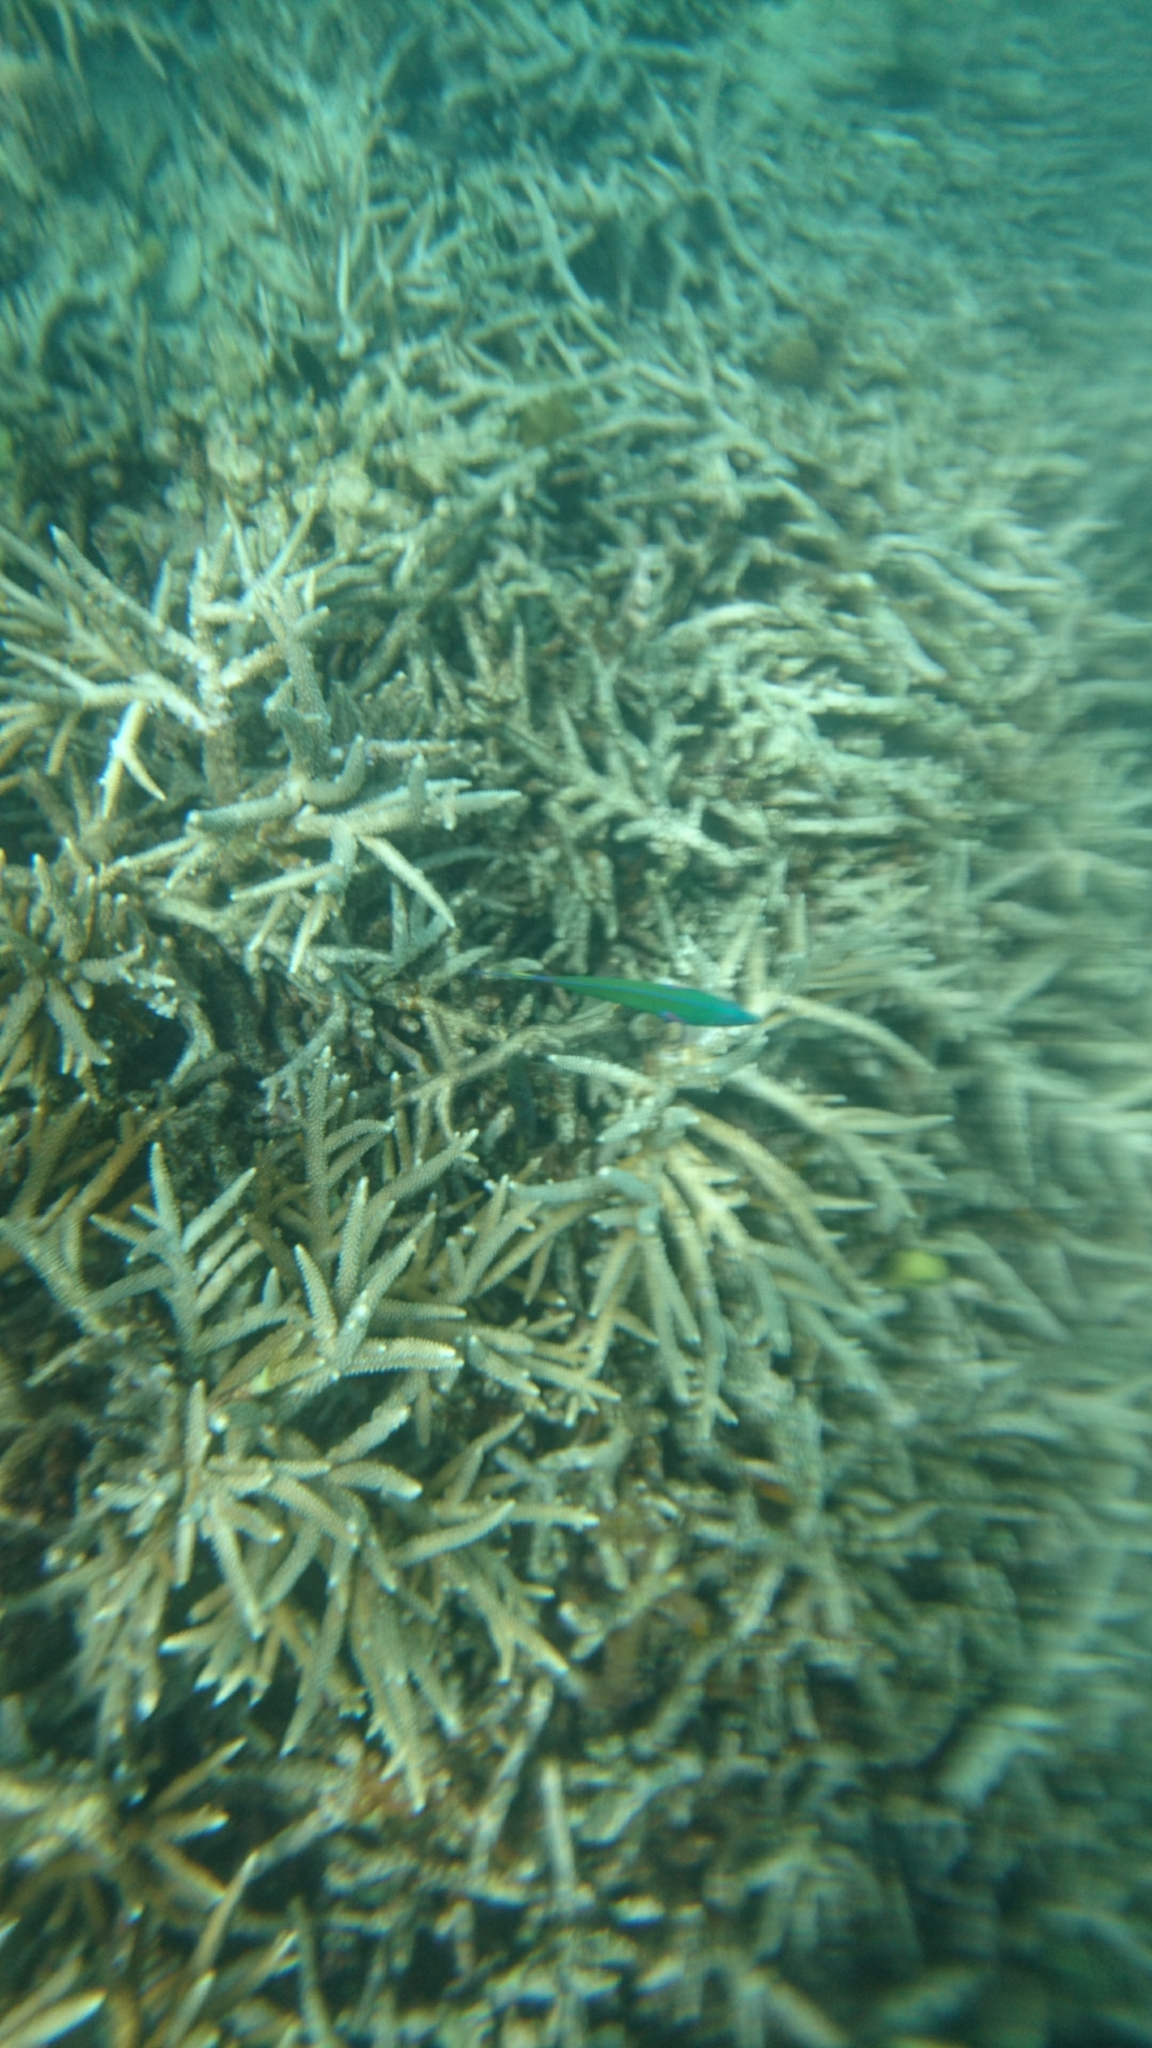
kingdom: Animalia
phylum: Chordata
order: Perciformes
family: Labridae
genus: Thalassoma
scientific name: Thalassoma lunare
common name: Blue wrasse
